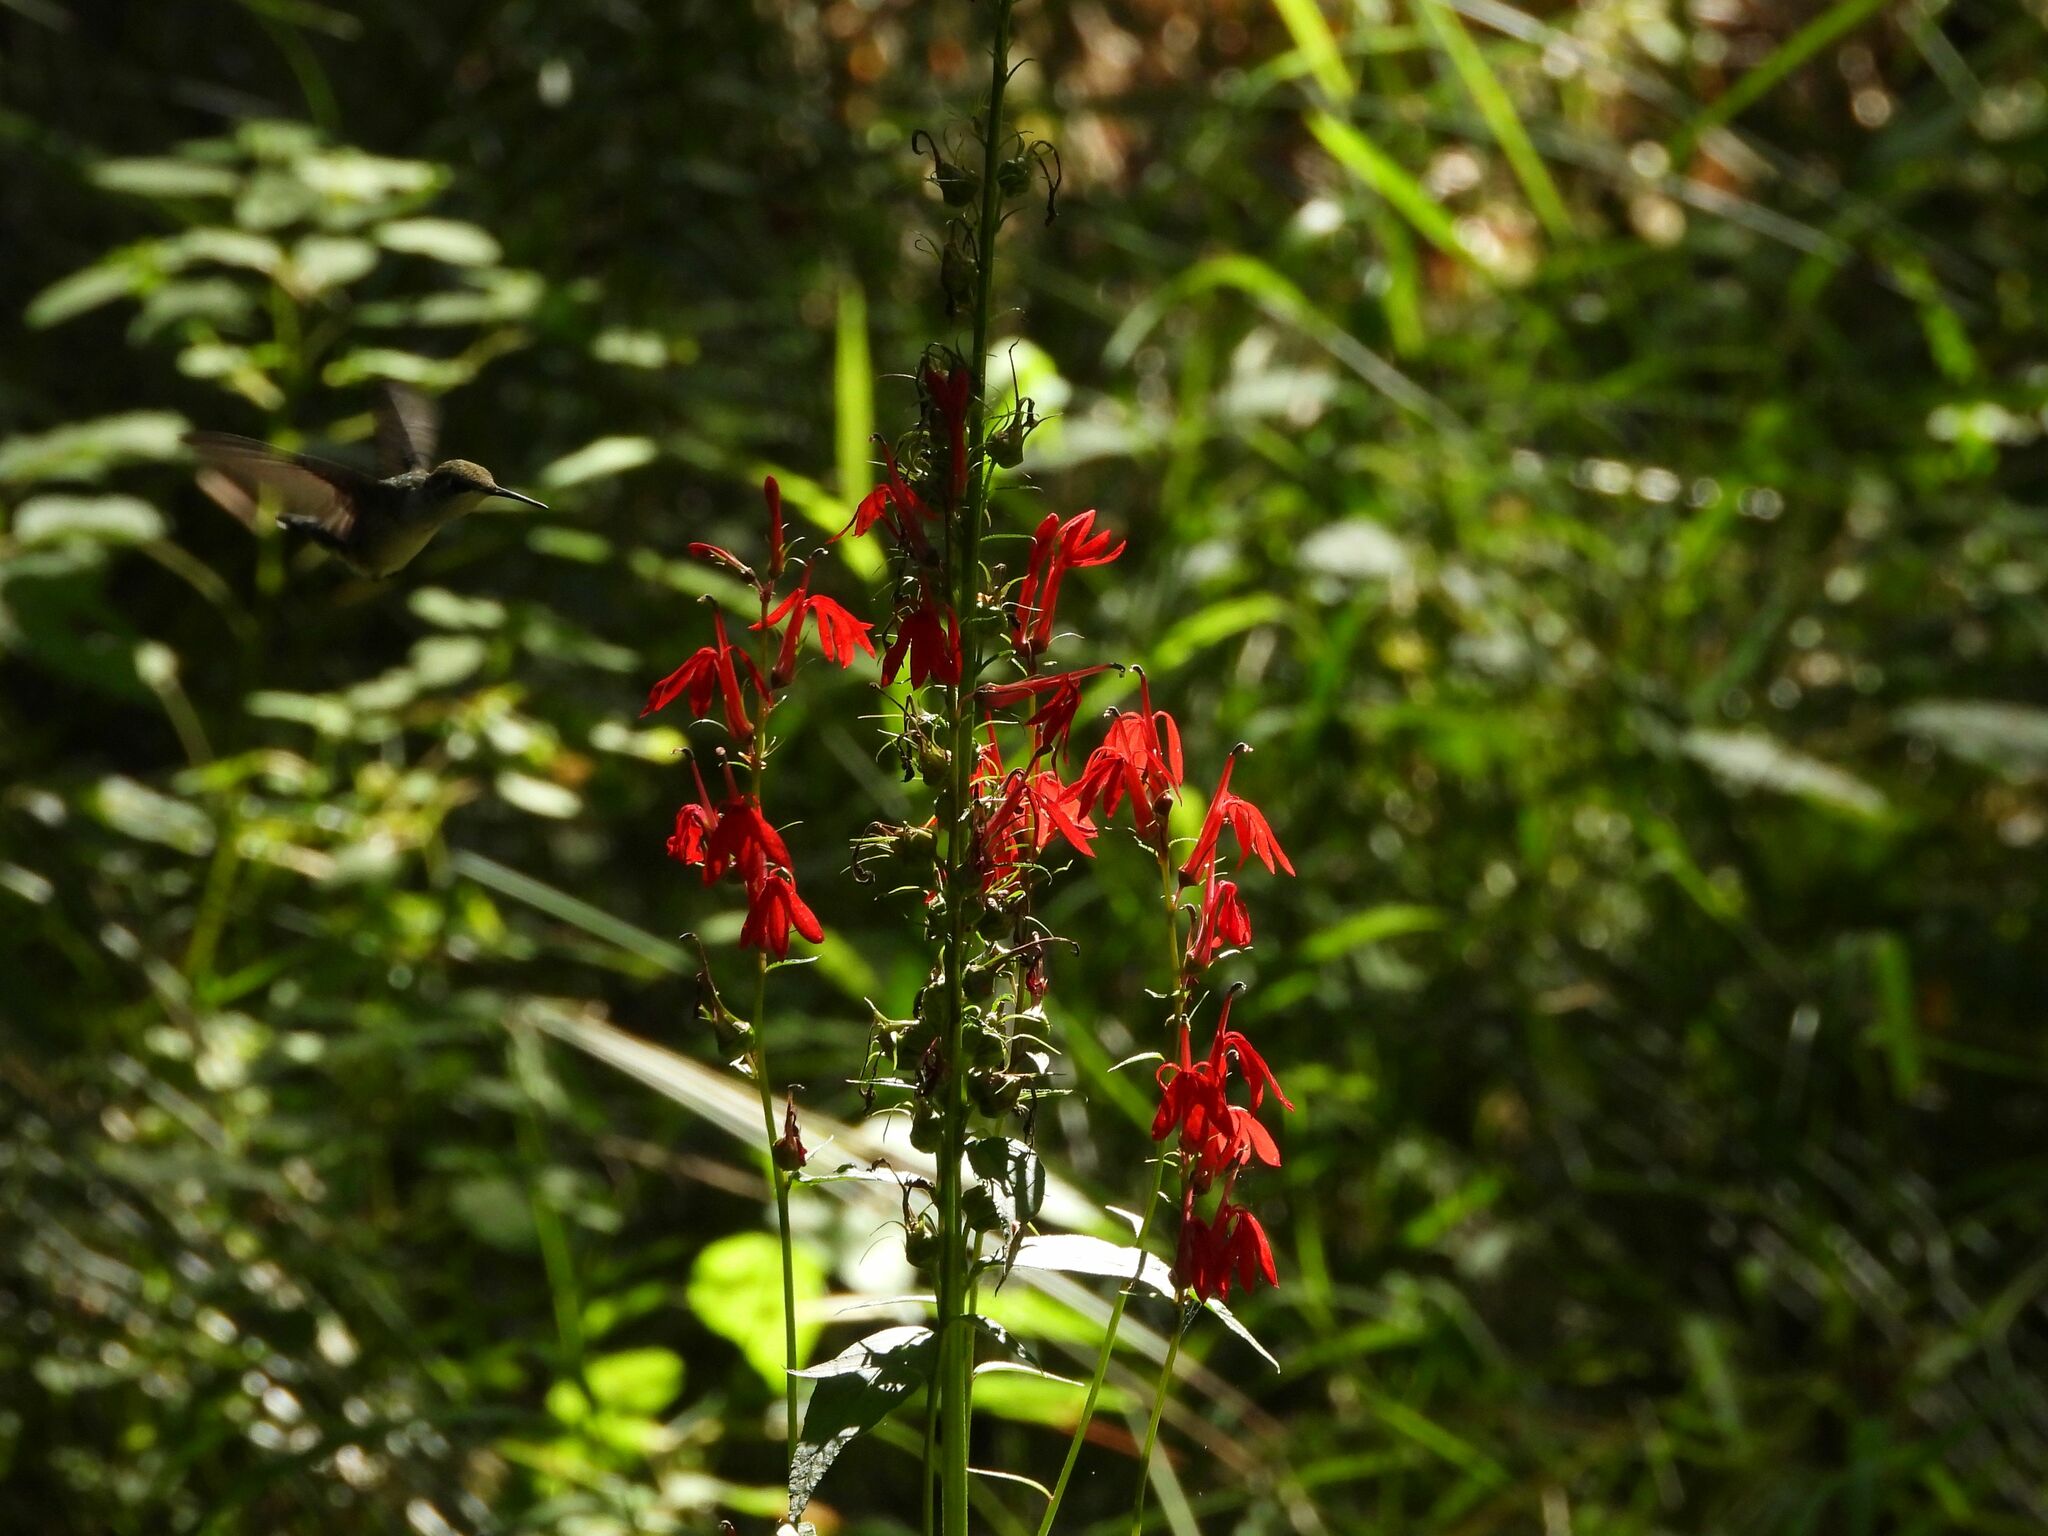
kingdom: Plantae
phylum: Tracheophyta
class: Magnoliopsida
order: Asterales
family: Campanulaceae
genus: Lobelia
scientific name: Lobelia cardinalis
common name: Cardinal flower
